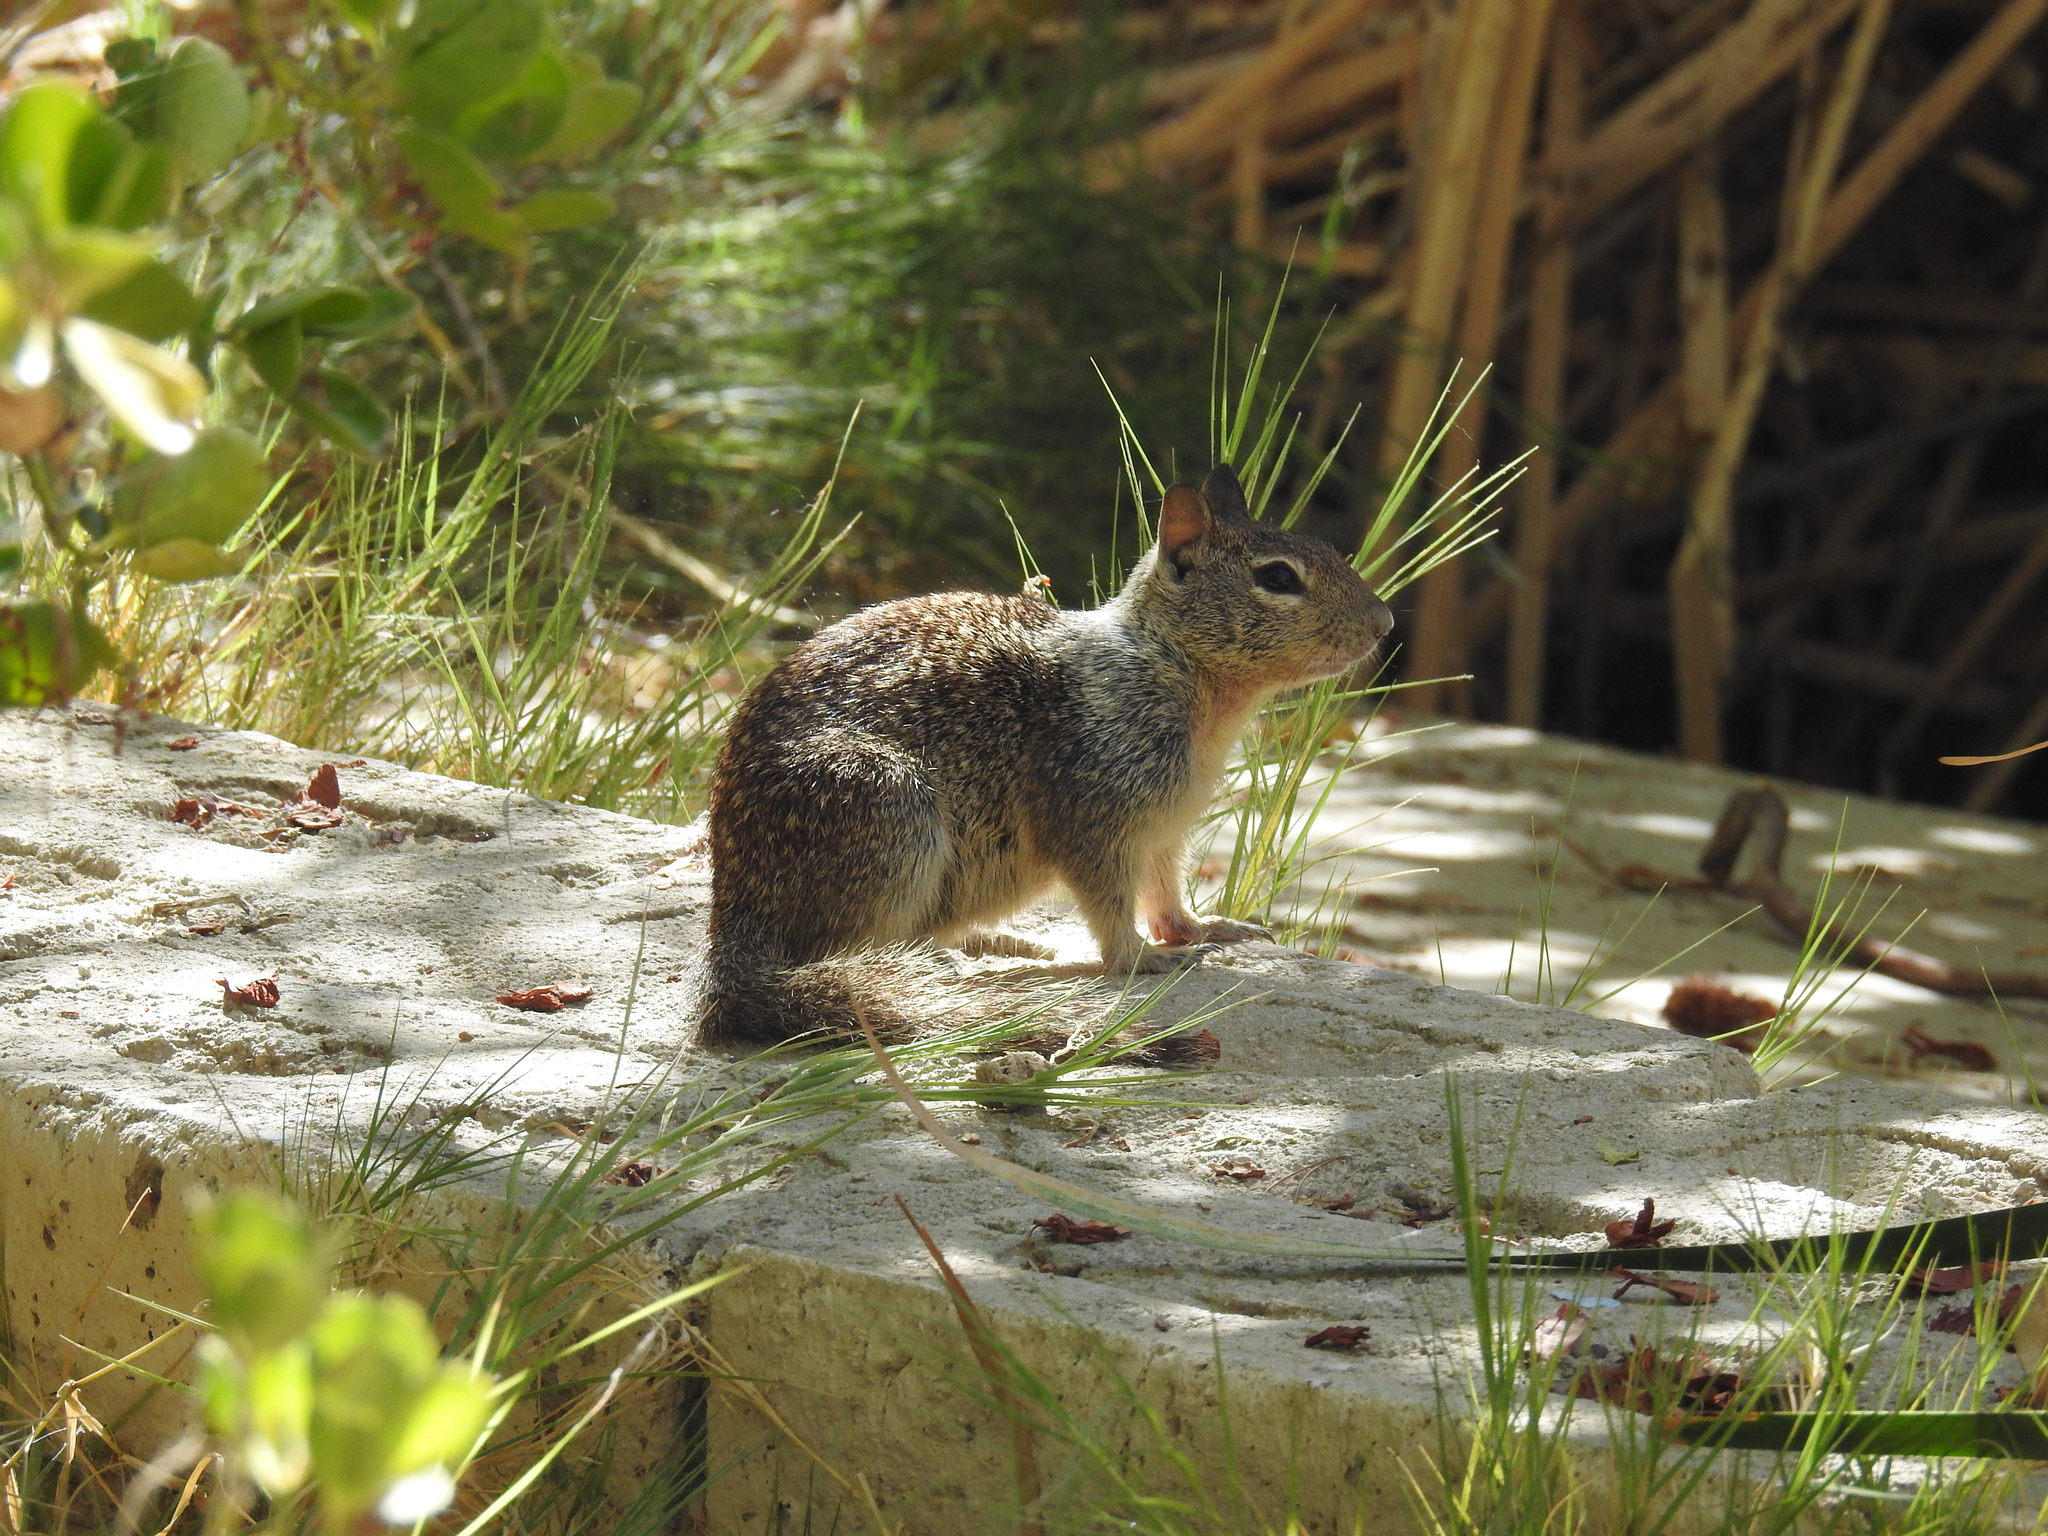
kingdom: Animalia
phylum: Chordata
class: Mammalia
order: Rodentia
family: Sciuridae
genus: Otospermophilus
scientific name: Otospermophilus beecheyi
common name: California ground squirrel
